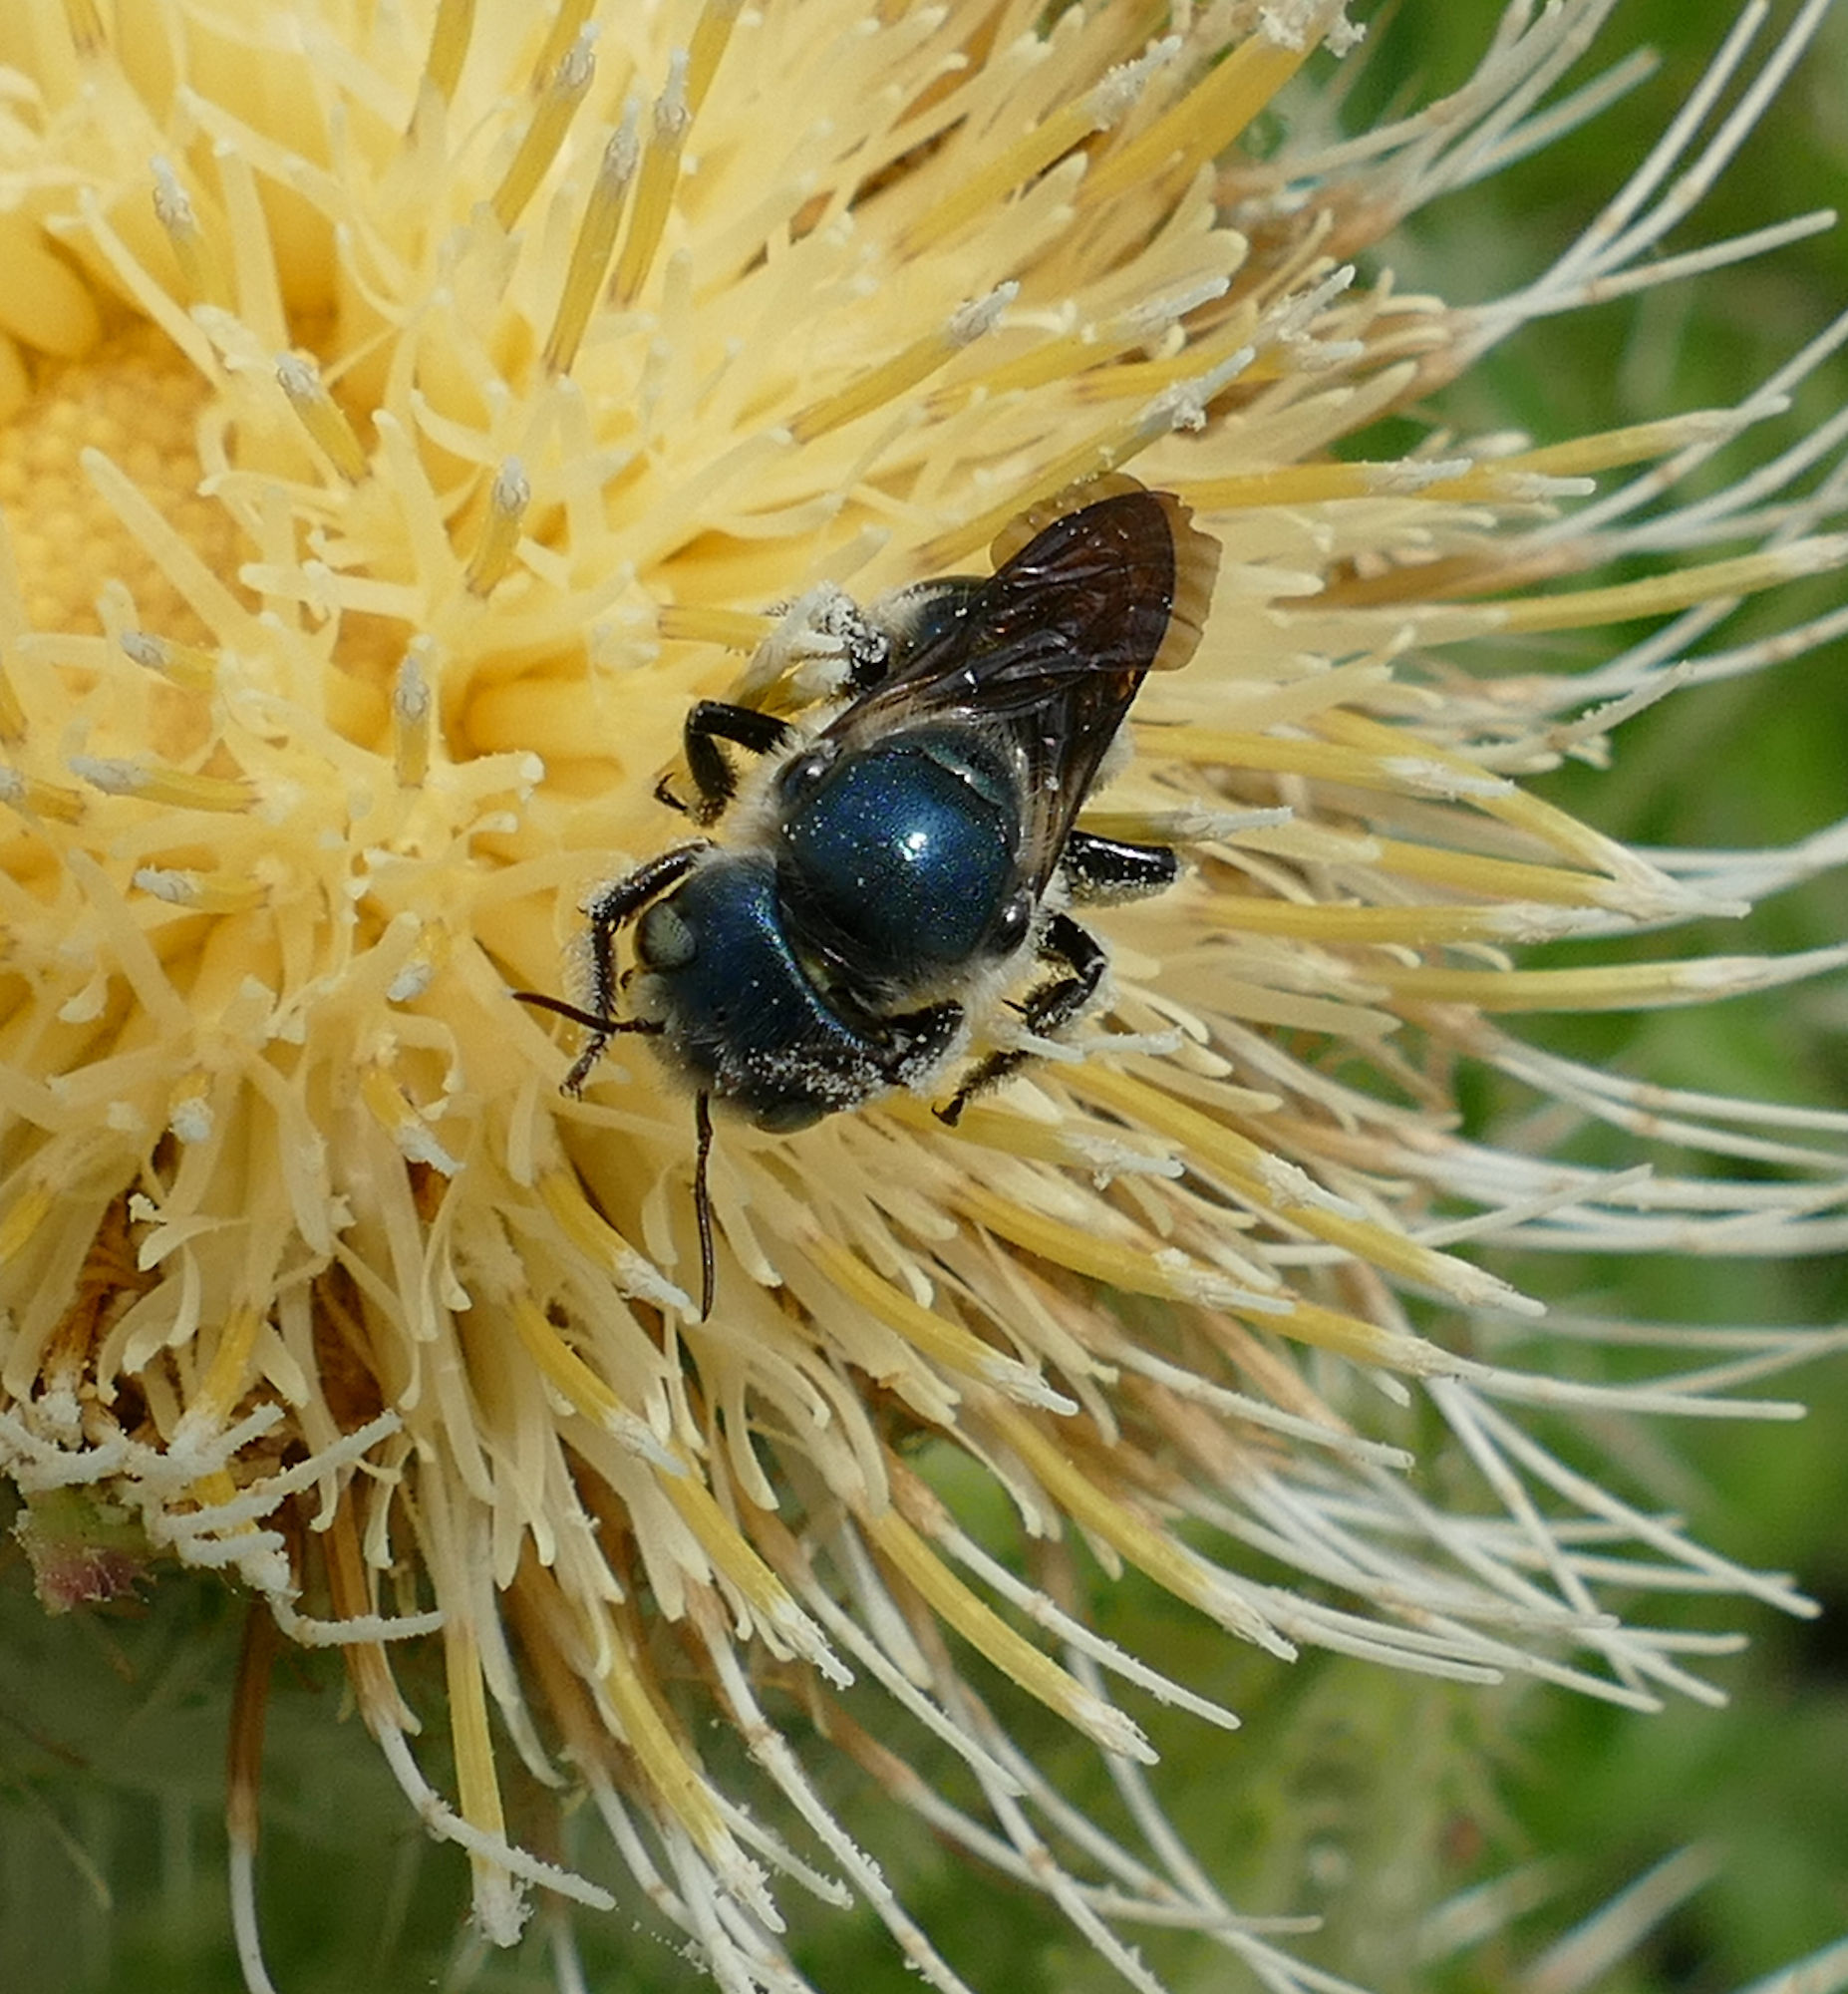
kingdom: Animalia
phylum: Arthropoda
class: Insecta
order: Hymenoptera
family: Megachilidae
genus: Osmia
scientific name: Osmia chalybea
